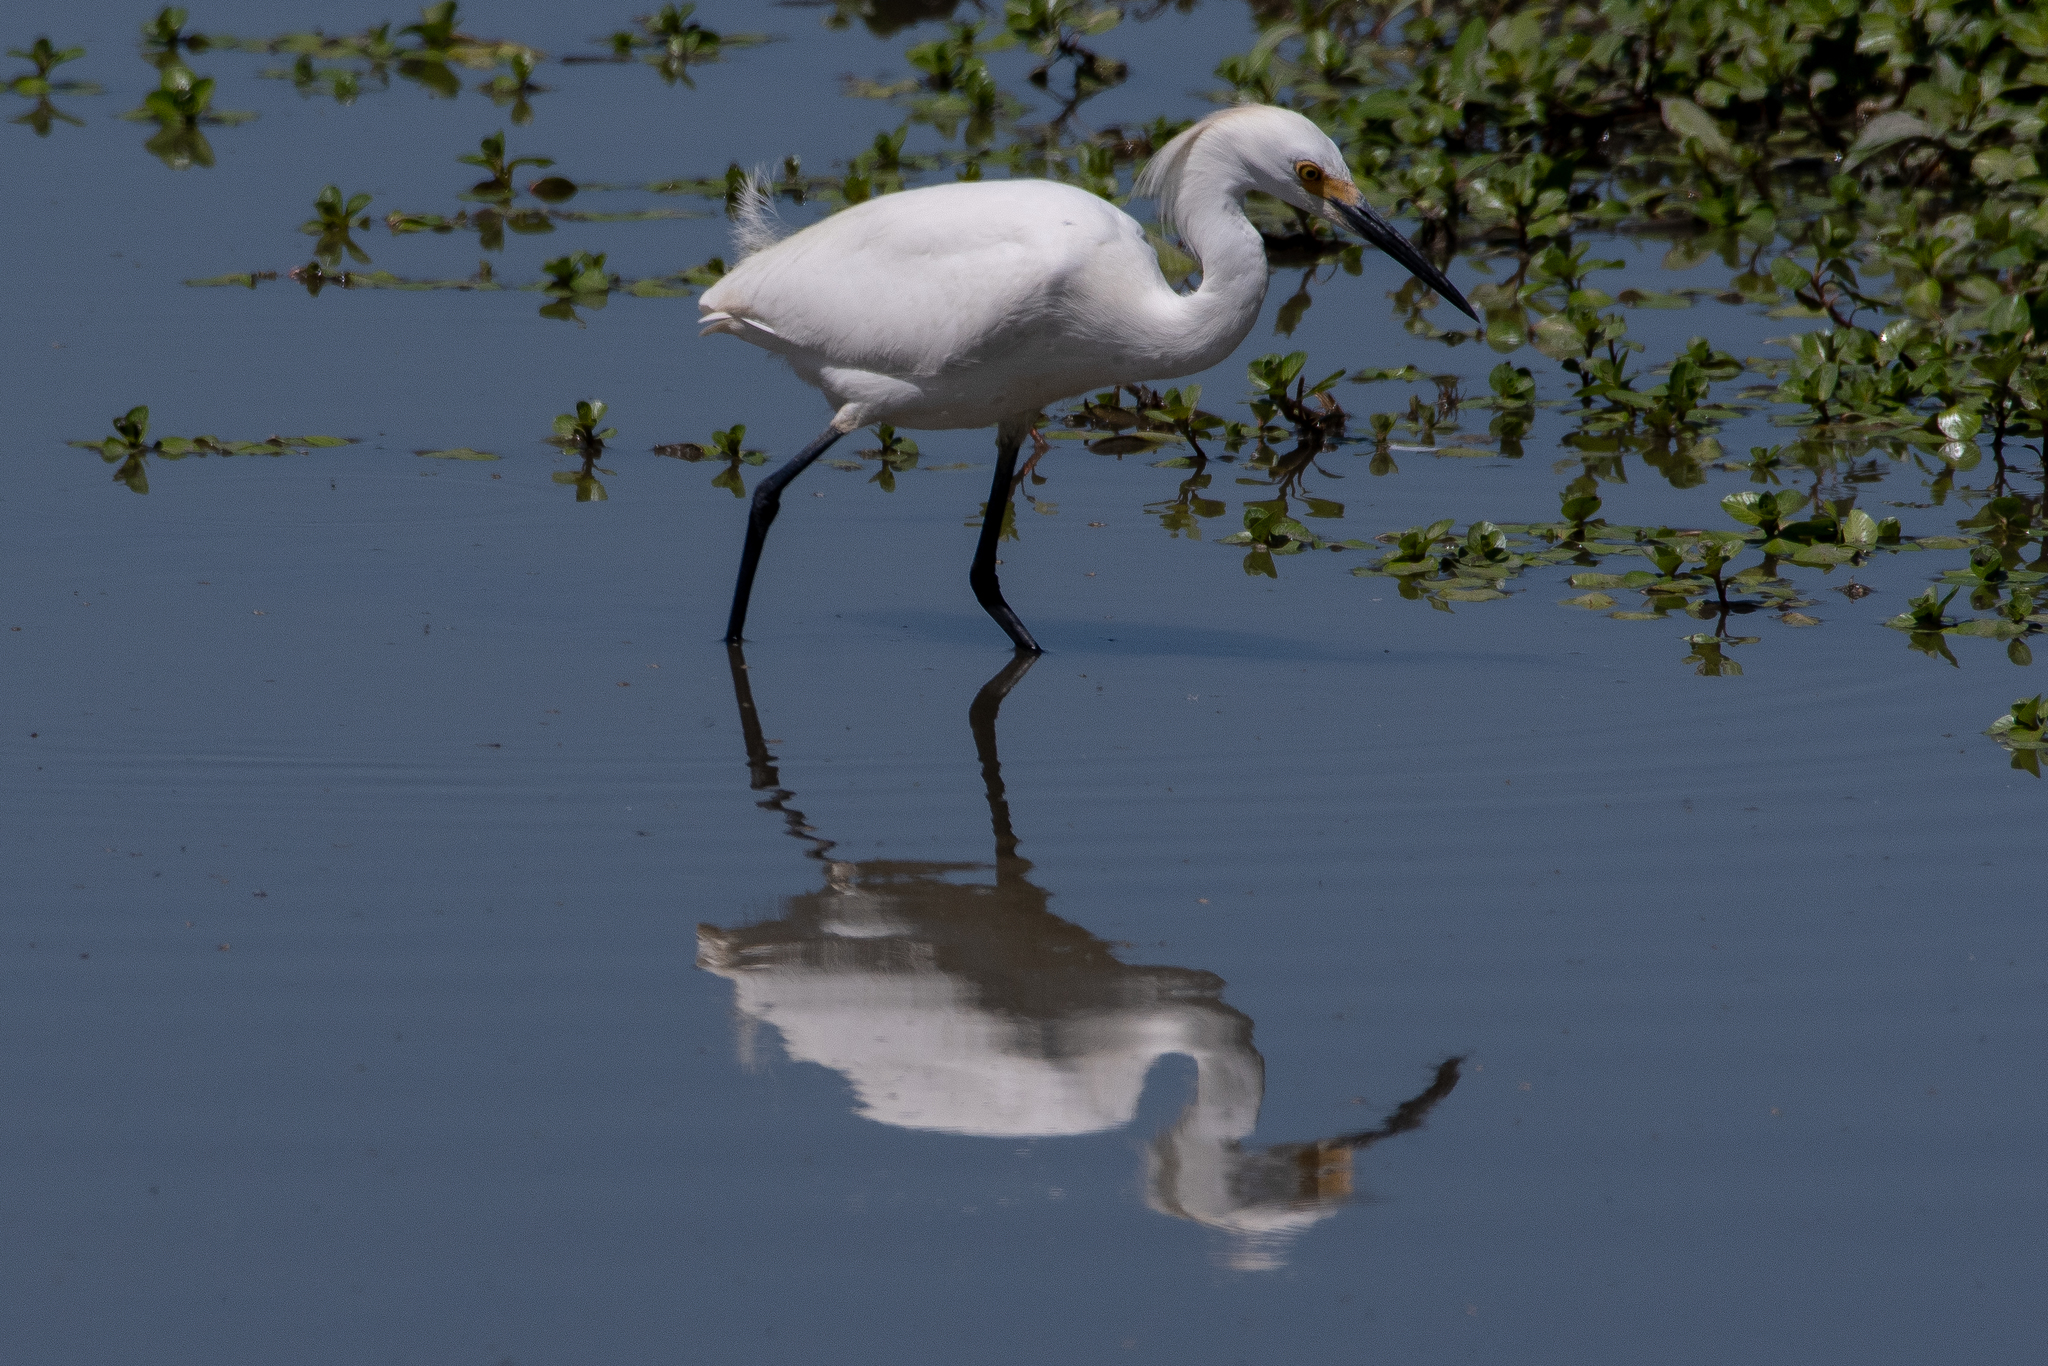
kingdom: Animalia
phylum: Chordata
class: Aves
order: Pelecaniformes
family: Ardeidae
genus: Egretta
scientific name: Egretta thula
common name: Snowy egret
